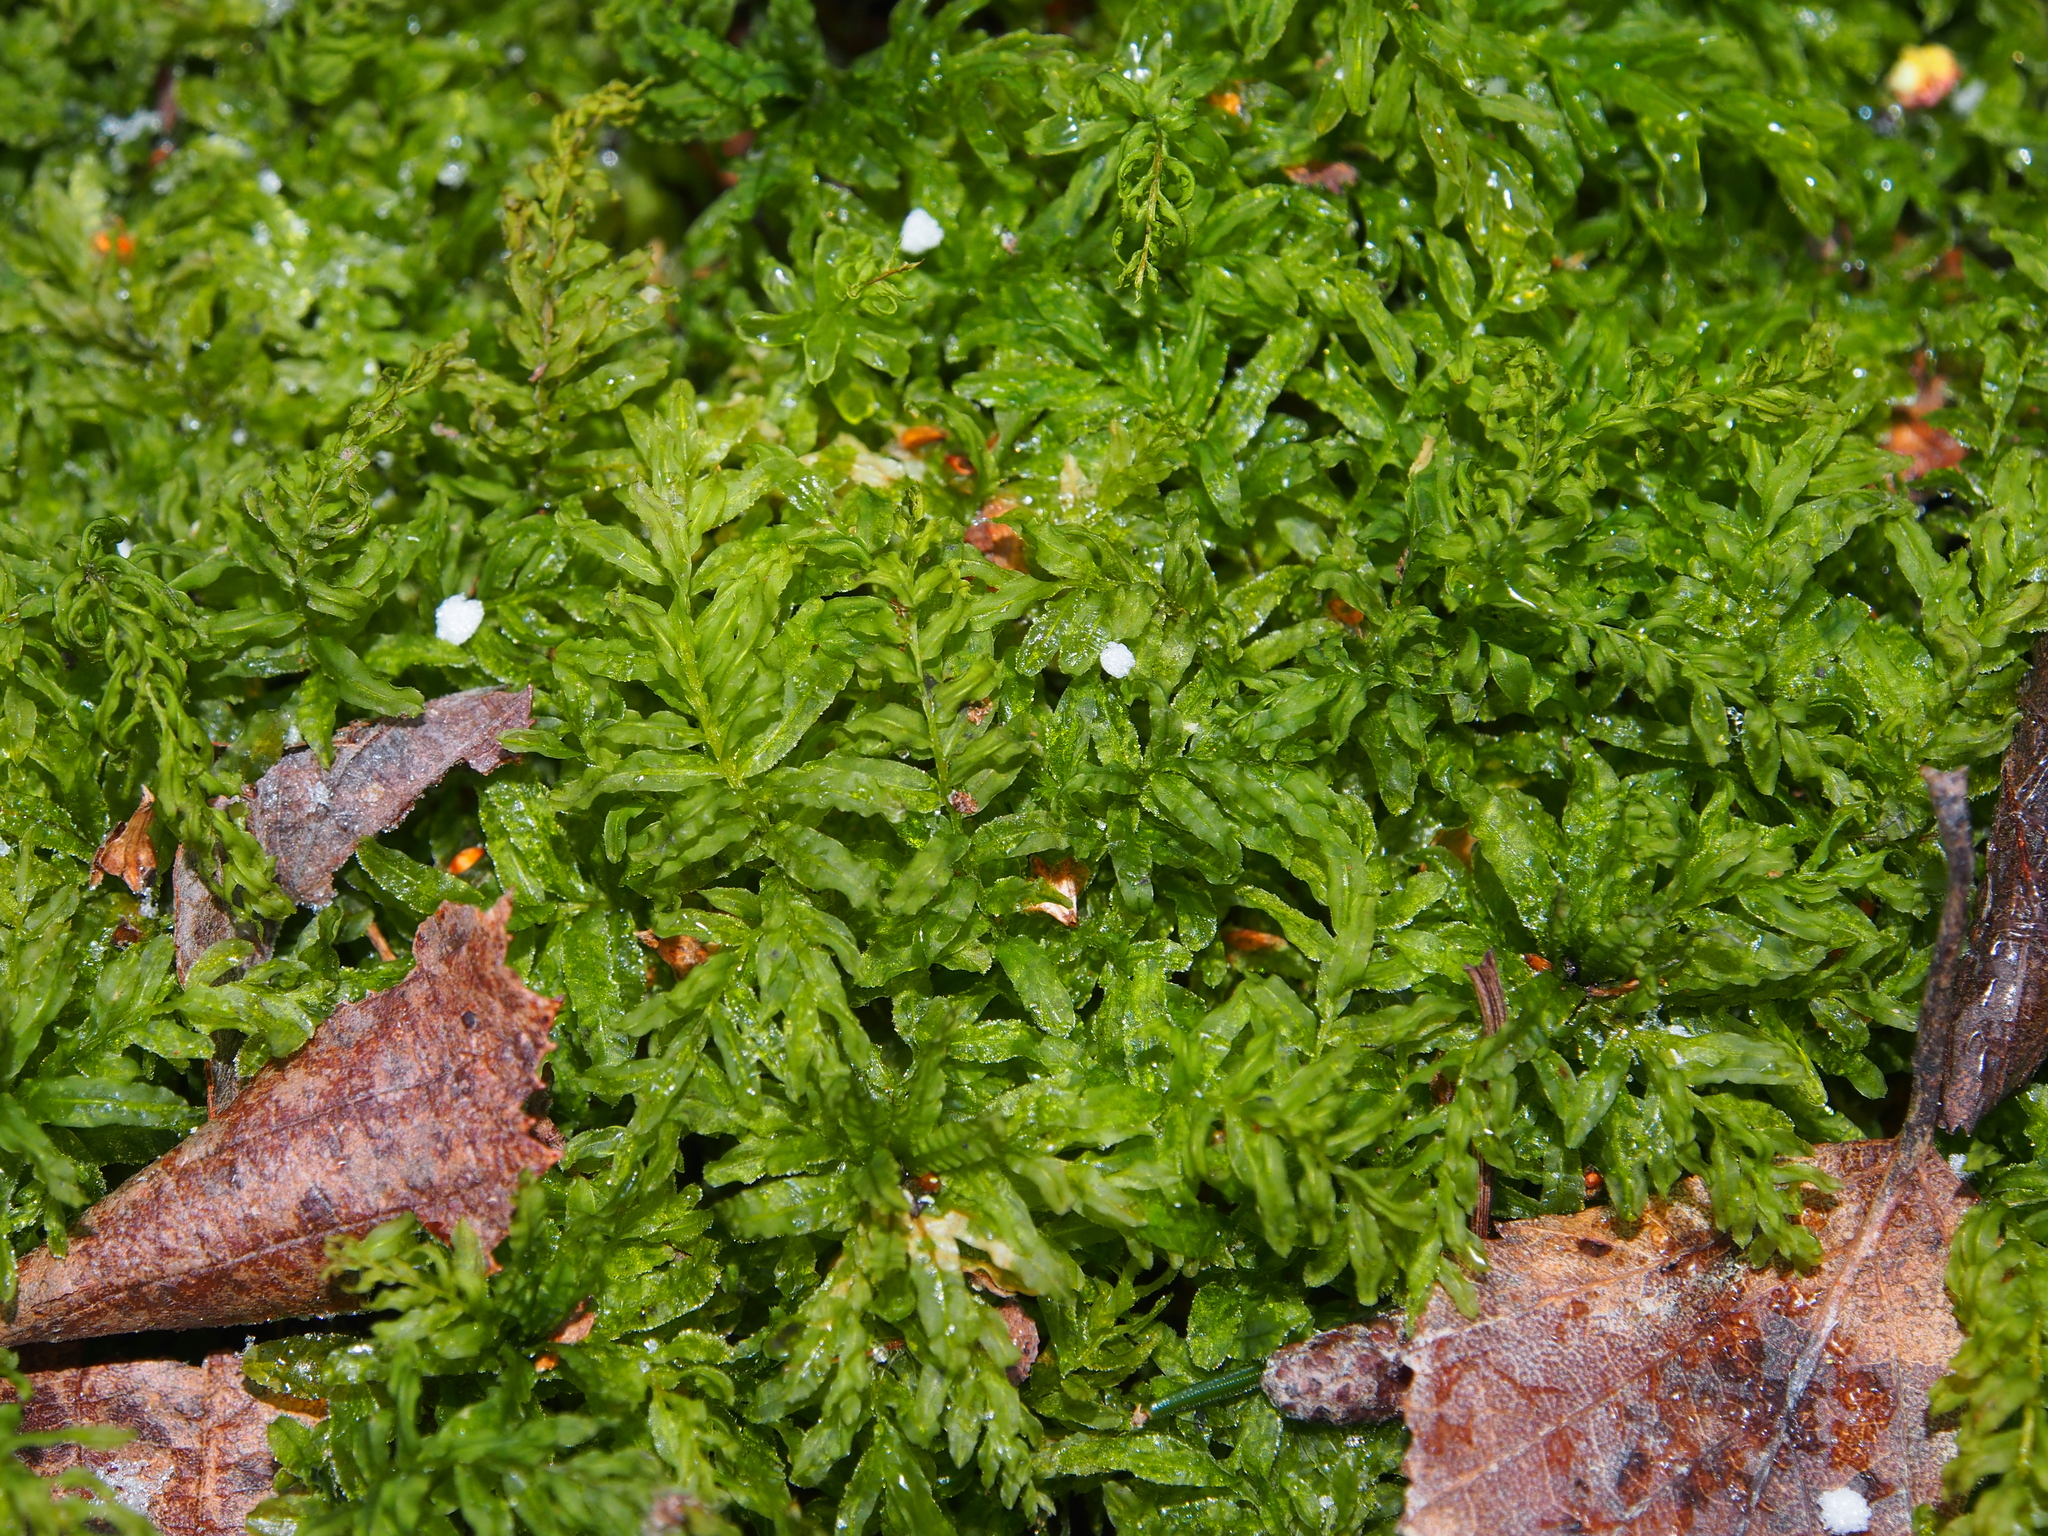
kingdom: Plantae
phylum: Bryophyta
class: Bryopsida
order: Bryales
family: Mniaceae
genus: Plagiomnium
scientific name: Plagiomnium undulatum
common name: Hart's-tongue thyme-moss
